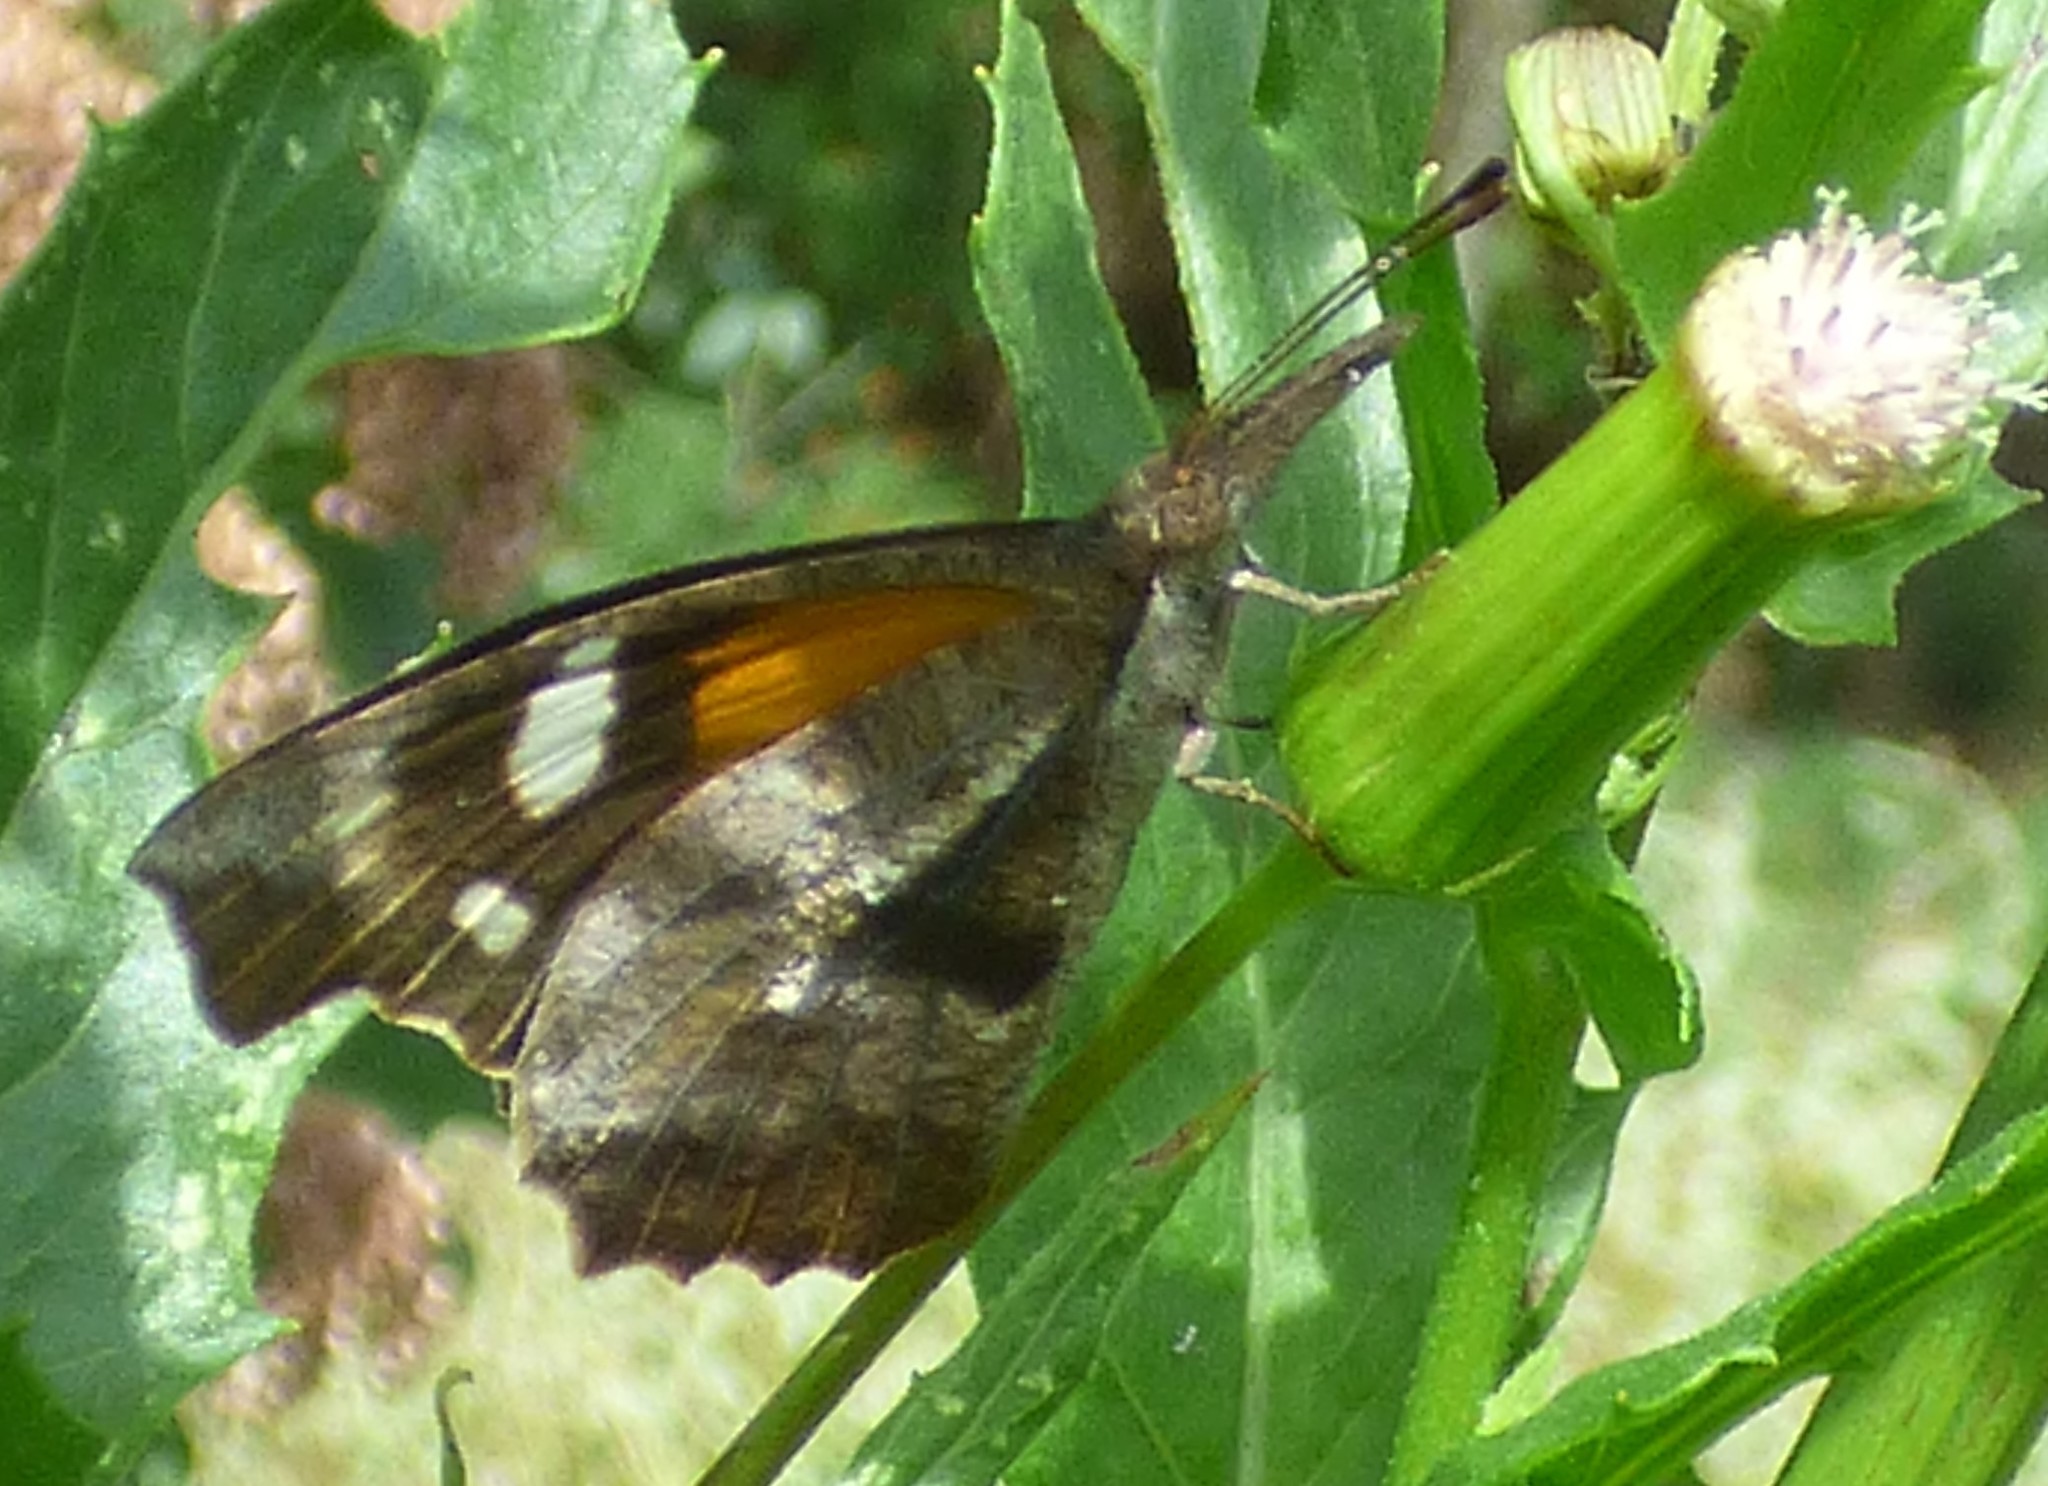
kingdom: Animalia
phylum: Arthropoda
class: Insecta
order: Lepidoptera
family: Nymphalidae
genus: Libytheana
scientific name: Libytheana carinenta
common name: American snout
